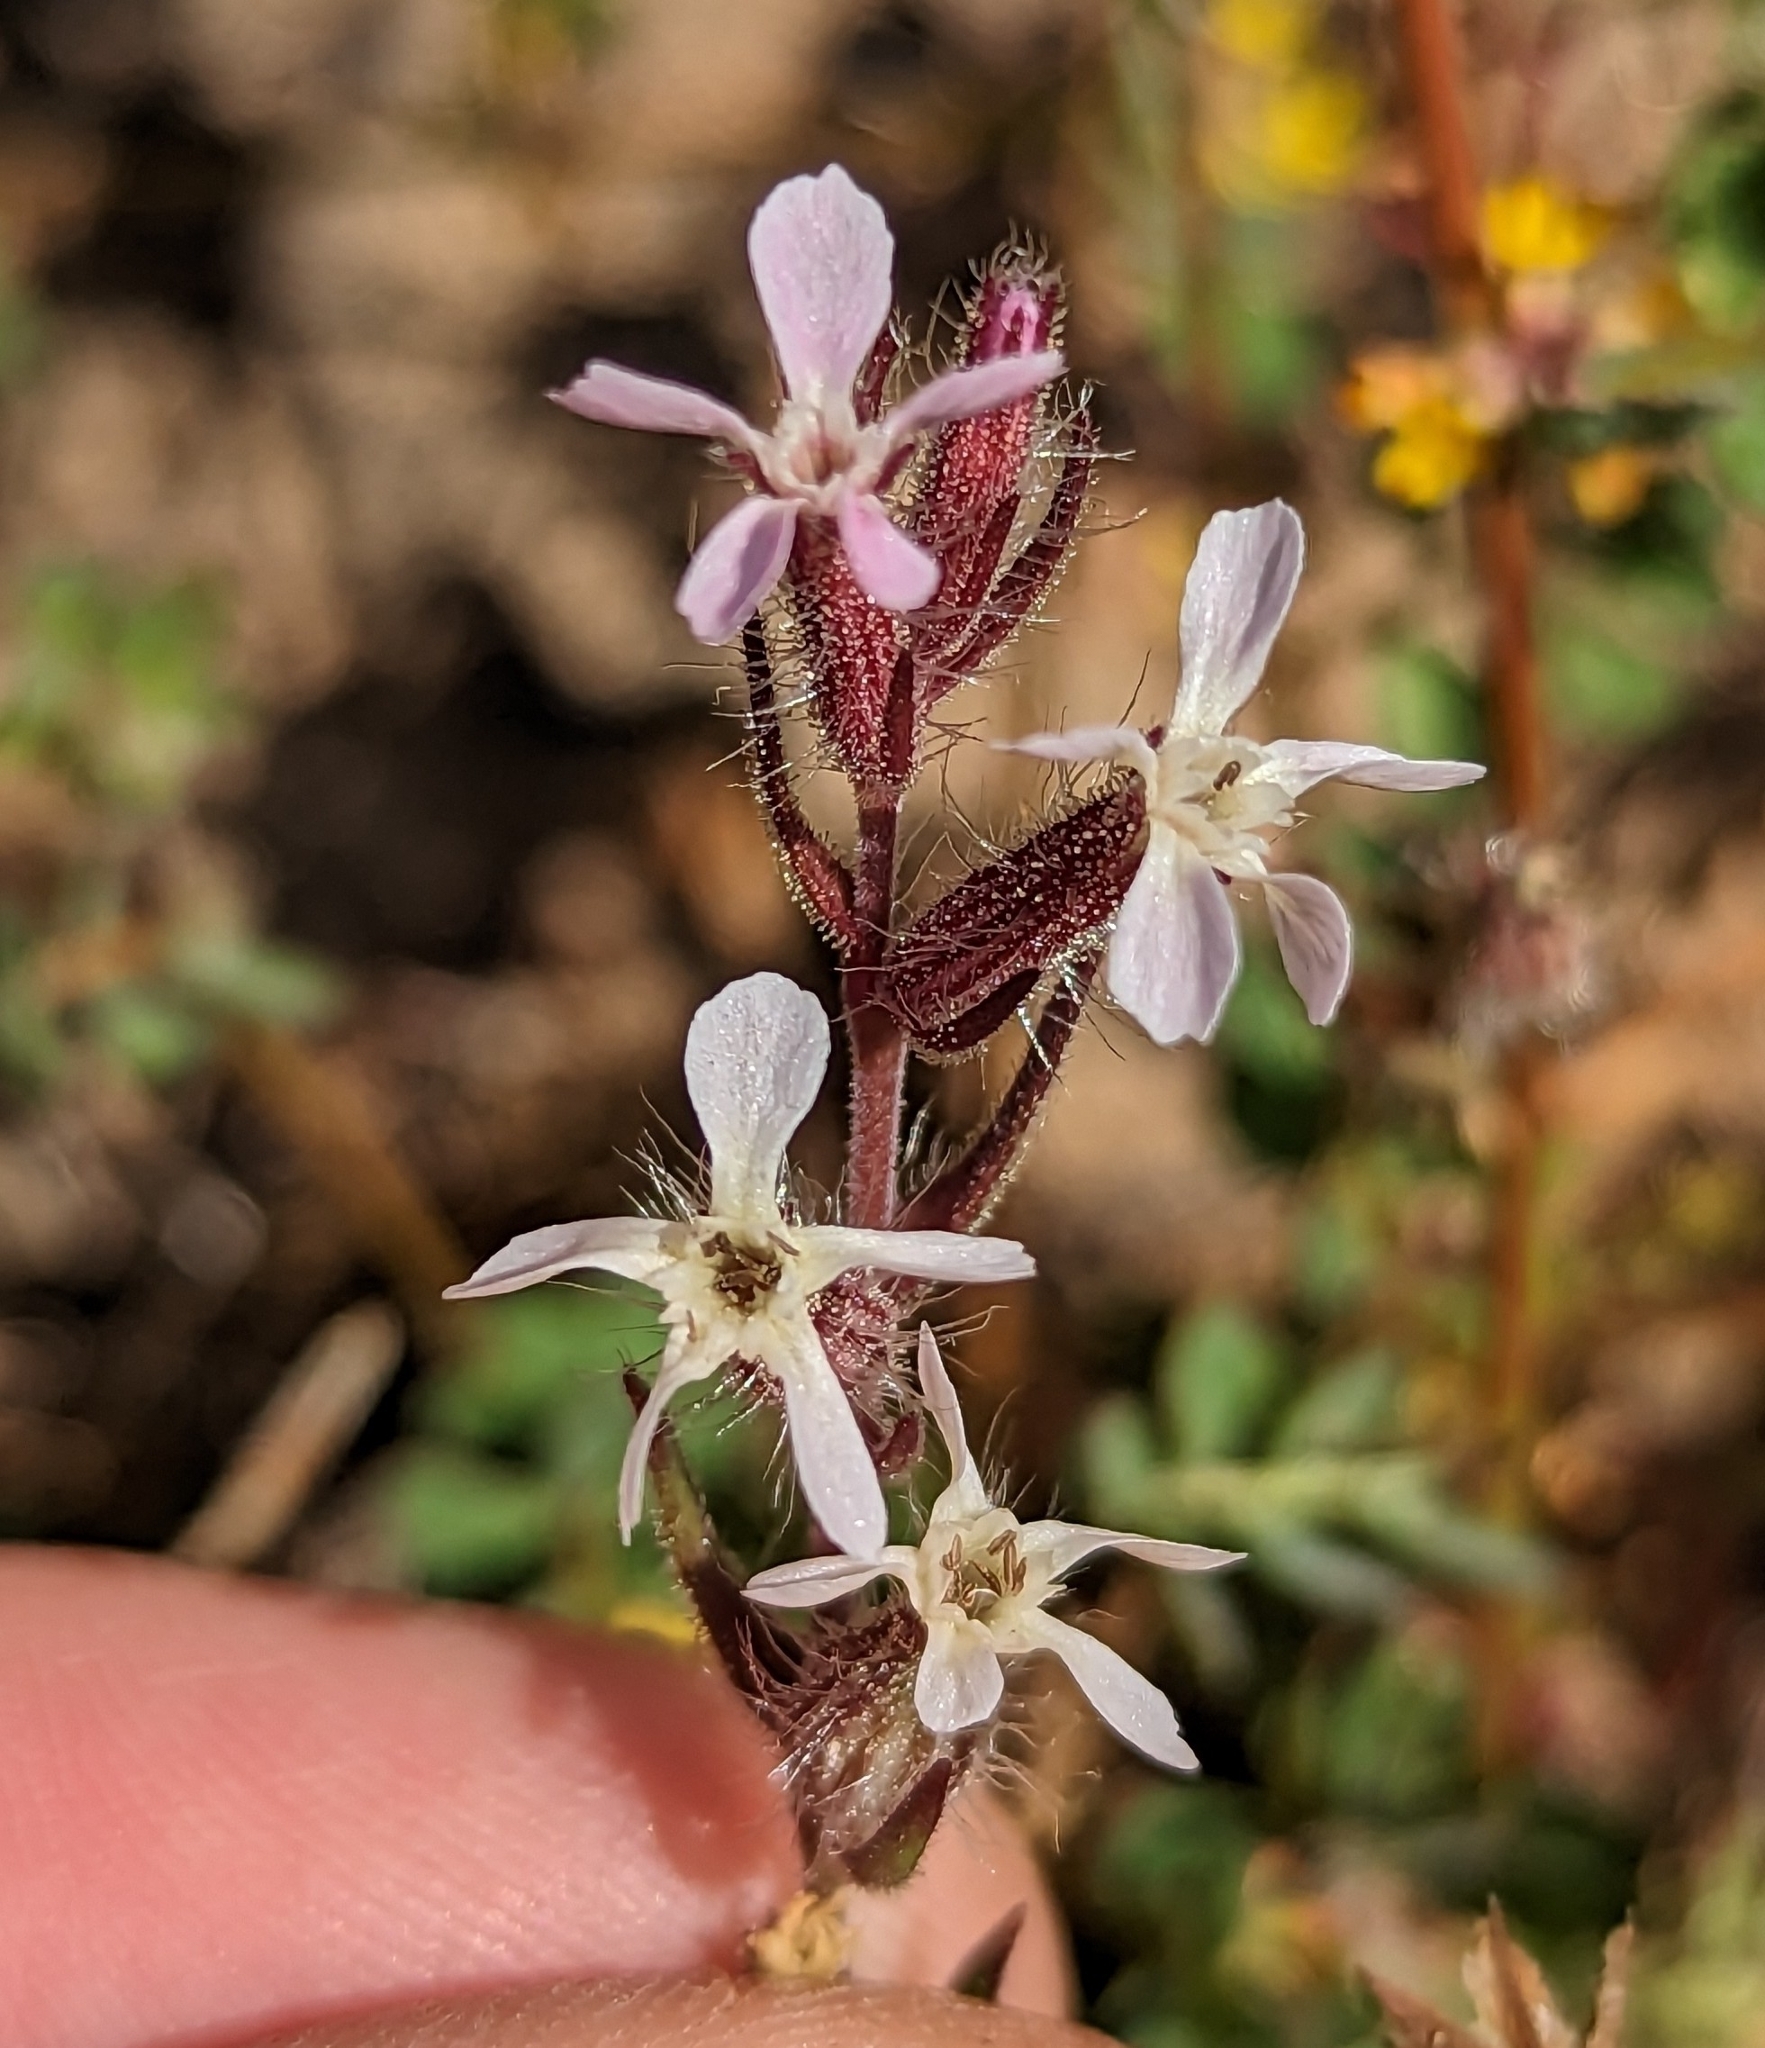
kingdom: Plantae
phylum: Tracheophyta
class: Magnoliopsida
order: Caryophyllales
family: Caryophyllaceae
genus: Silene
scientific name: Silene gallica
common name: Small-flowered catchfly
